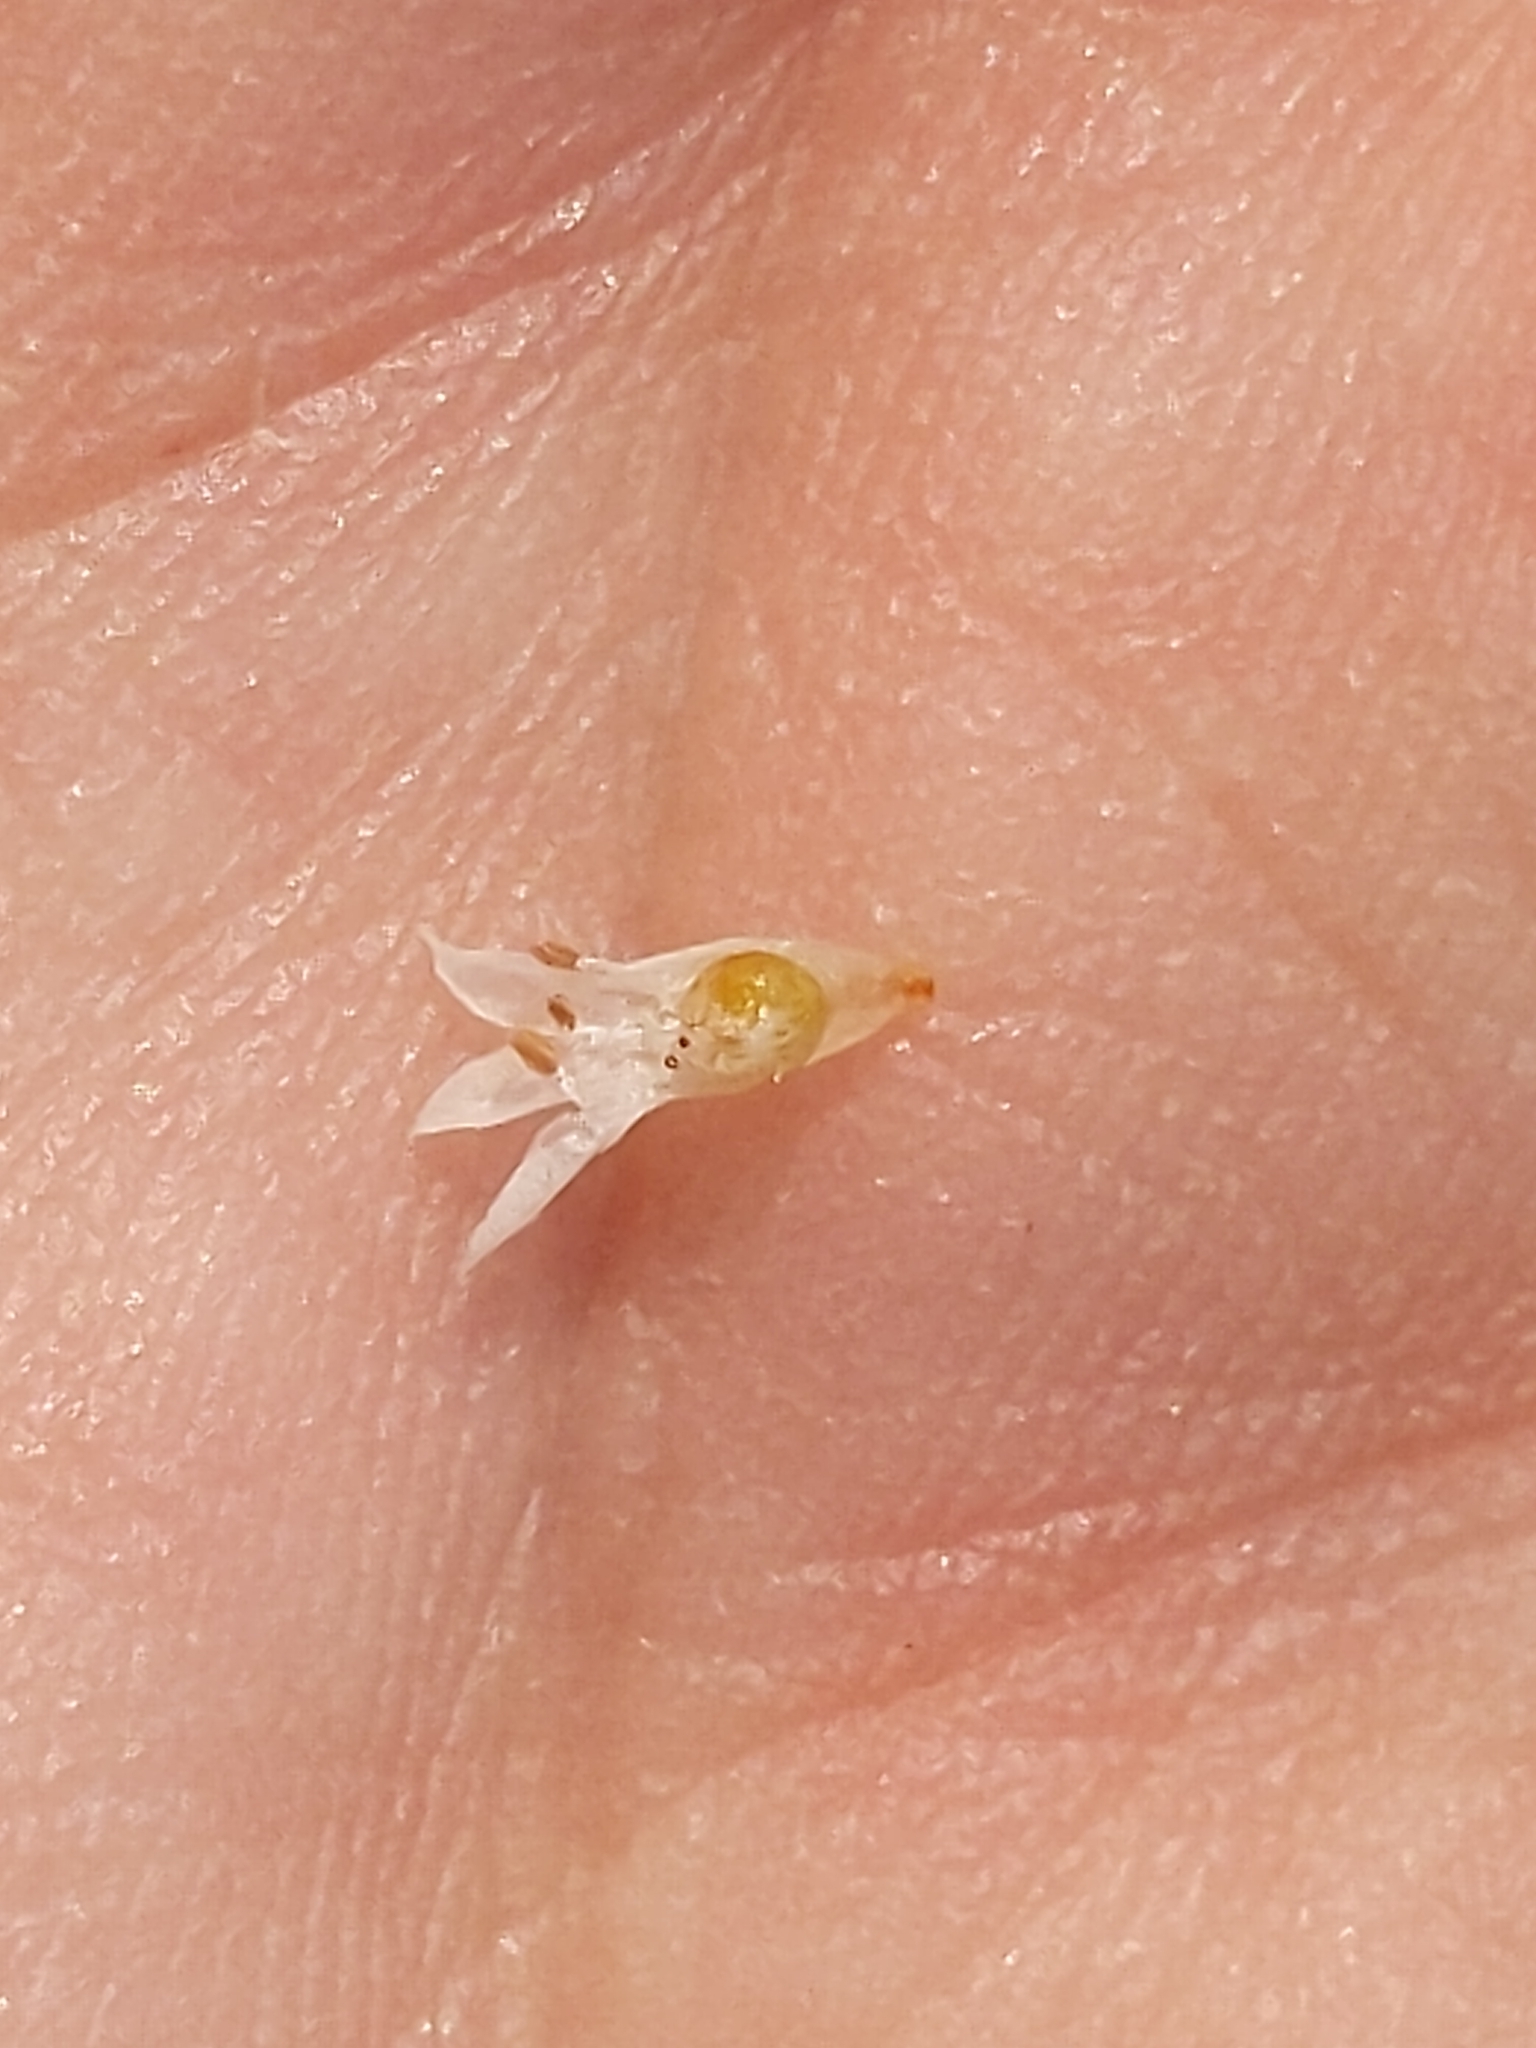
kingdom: Plantae
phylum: Tracheophyta
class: Magnoliopsida
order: Solanales
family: Convolvulaceae
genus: Cuscuta
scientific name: Cuscuta pacifica
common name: Large saltmarsh dodder
